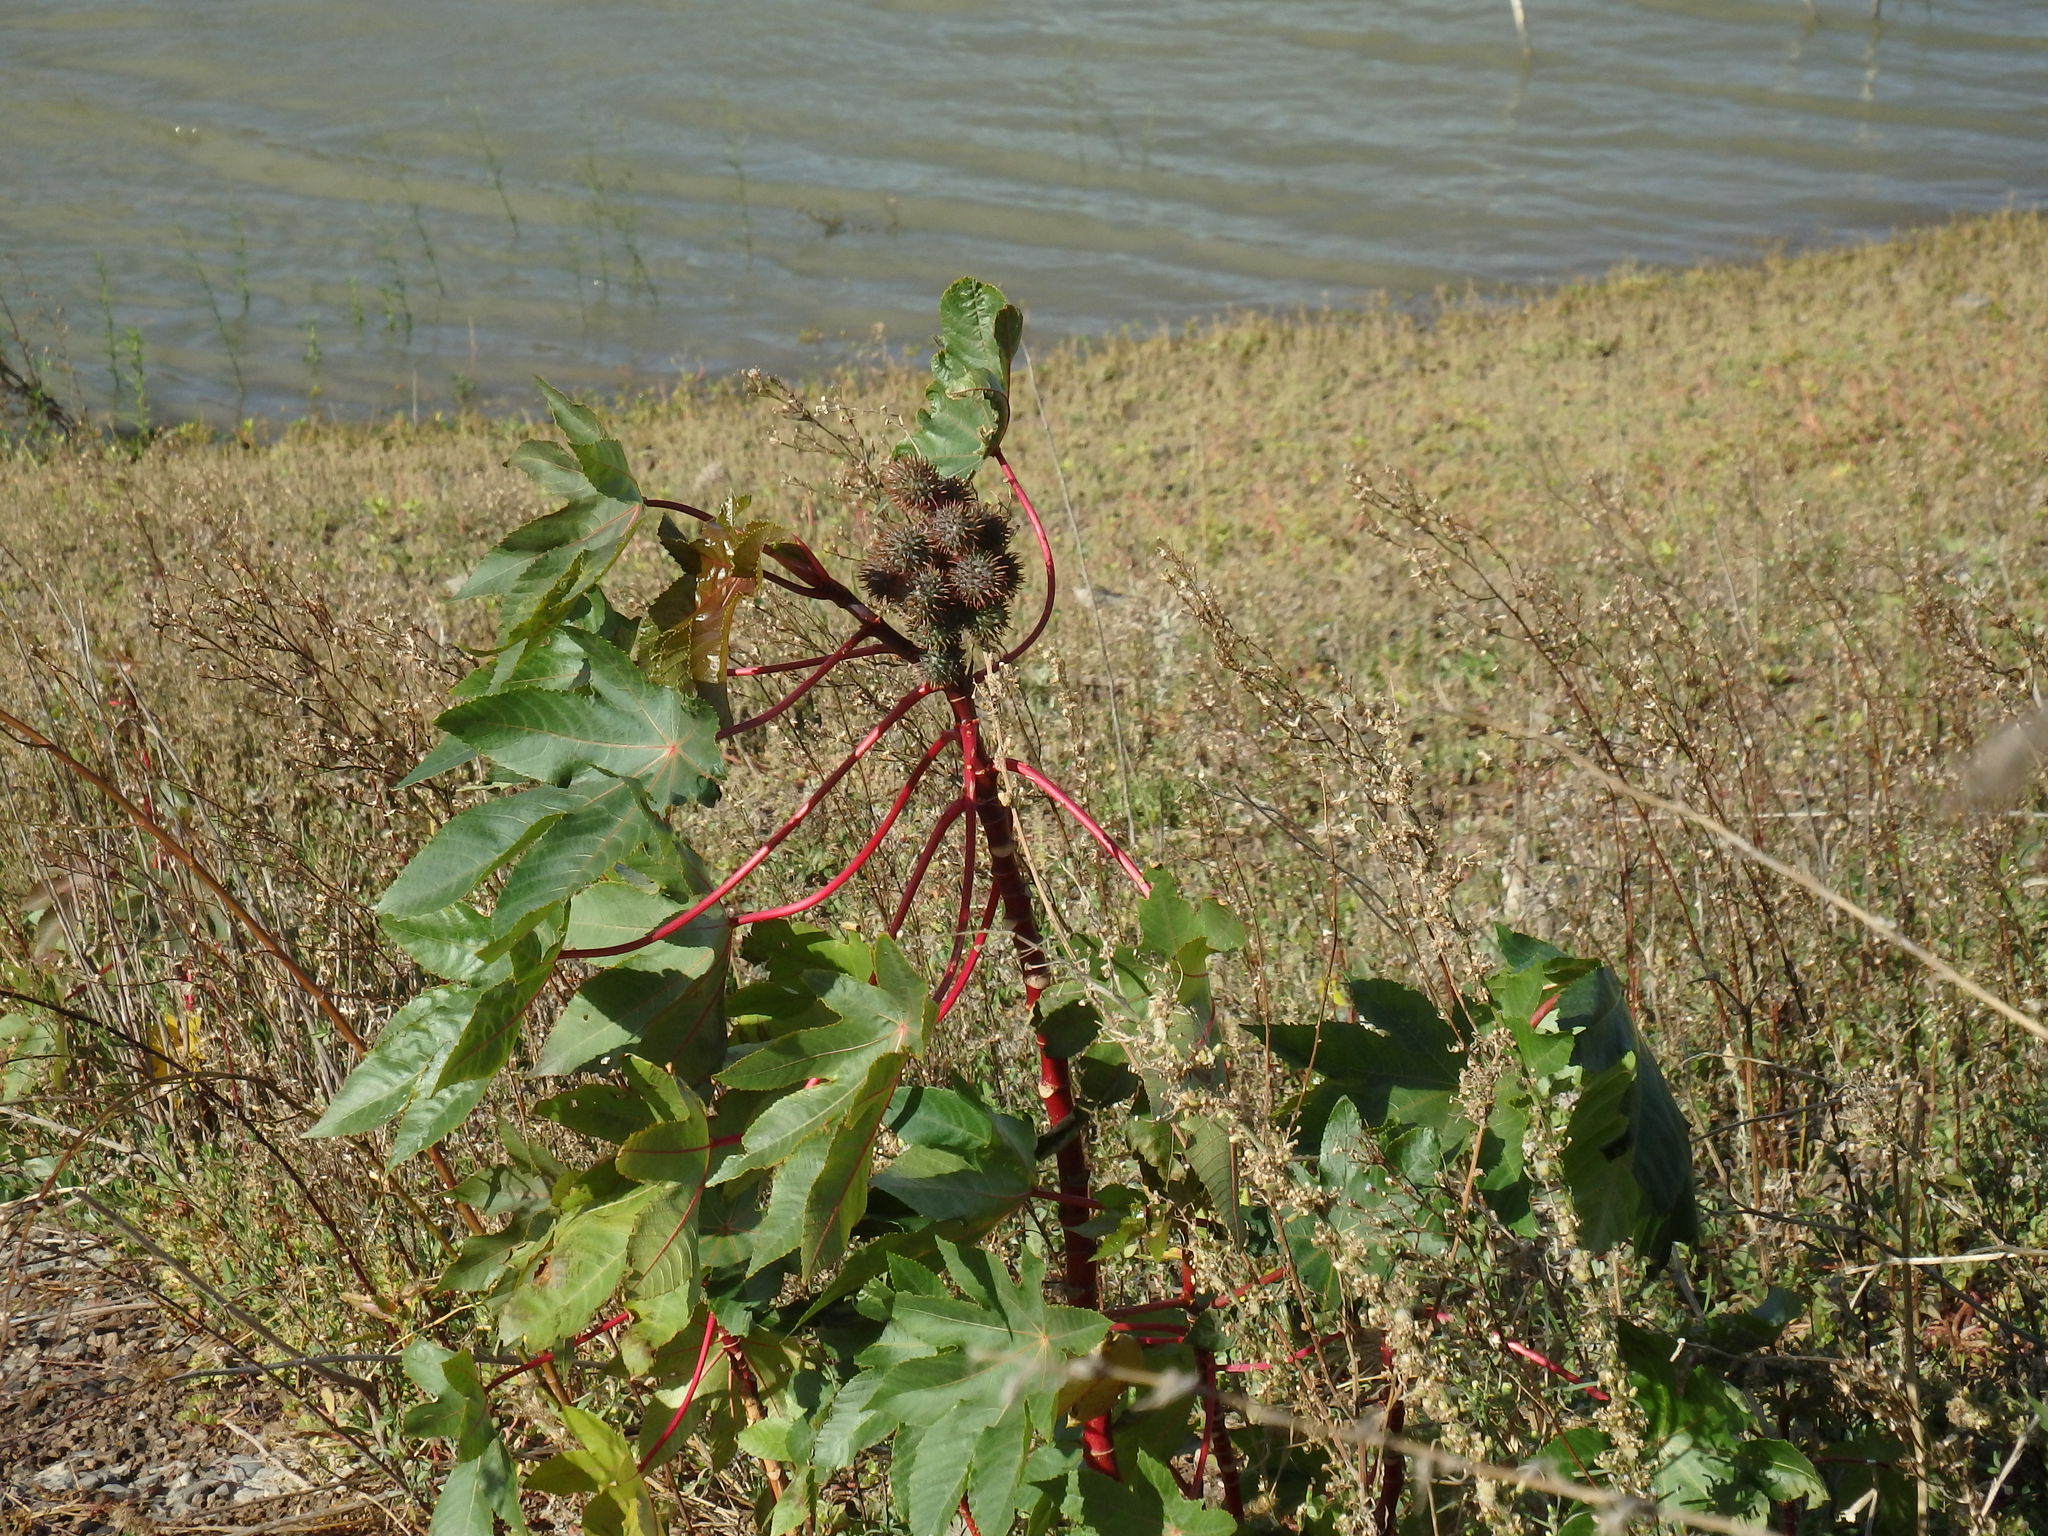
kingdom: Plantae
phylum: Tracheophyta
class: Magnoliopsida
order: Malpighiales
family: Euphorbiaceae
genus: Ricinus
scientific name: Ricinus communis
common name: Castor-oil-plant
